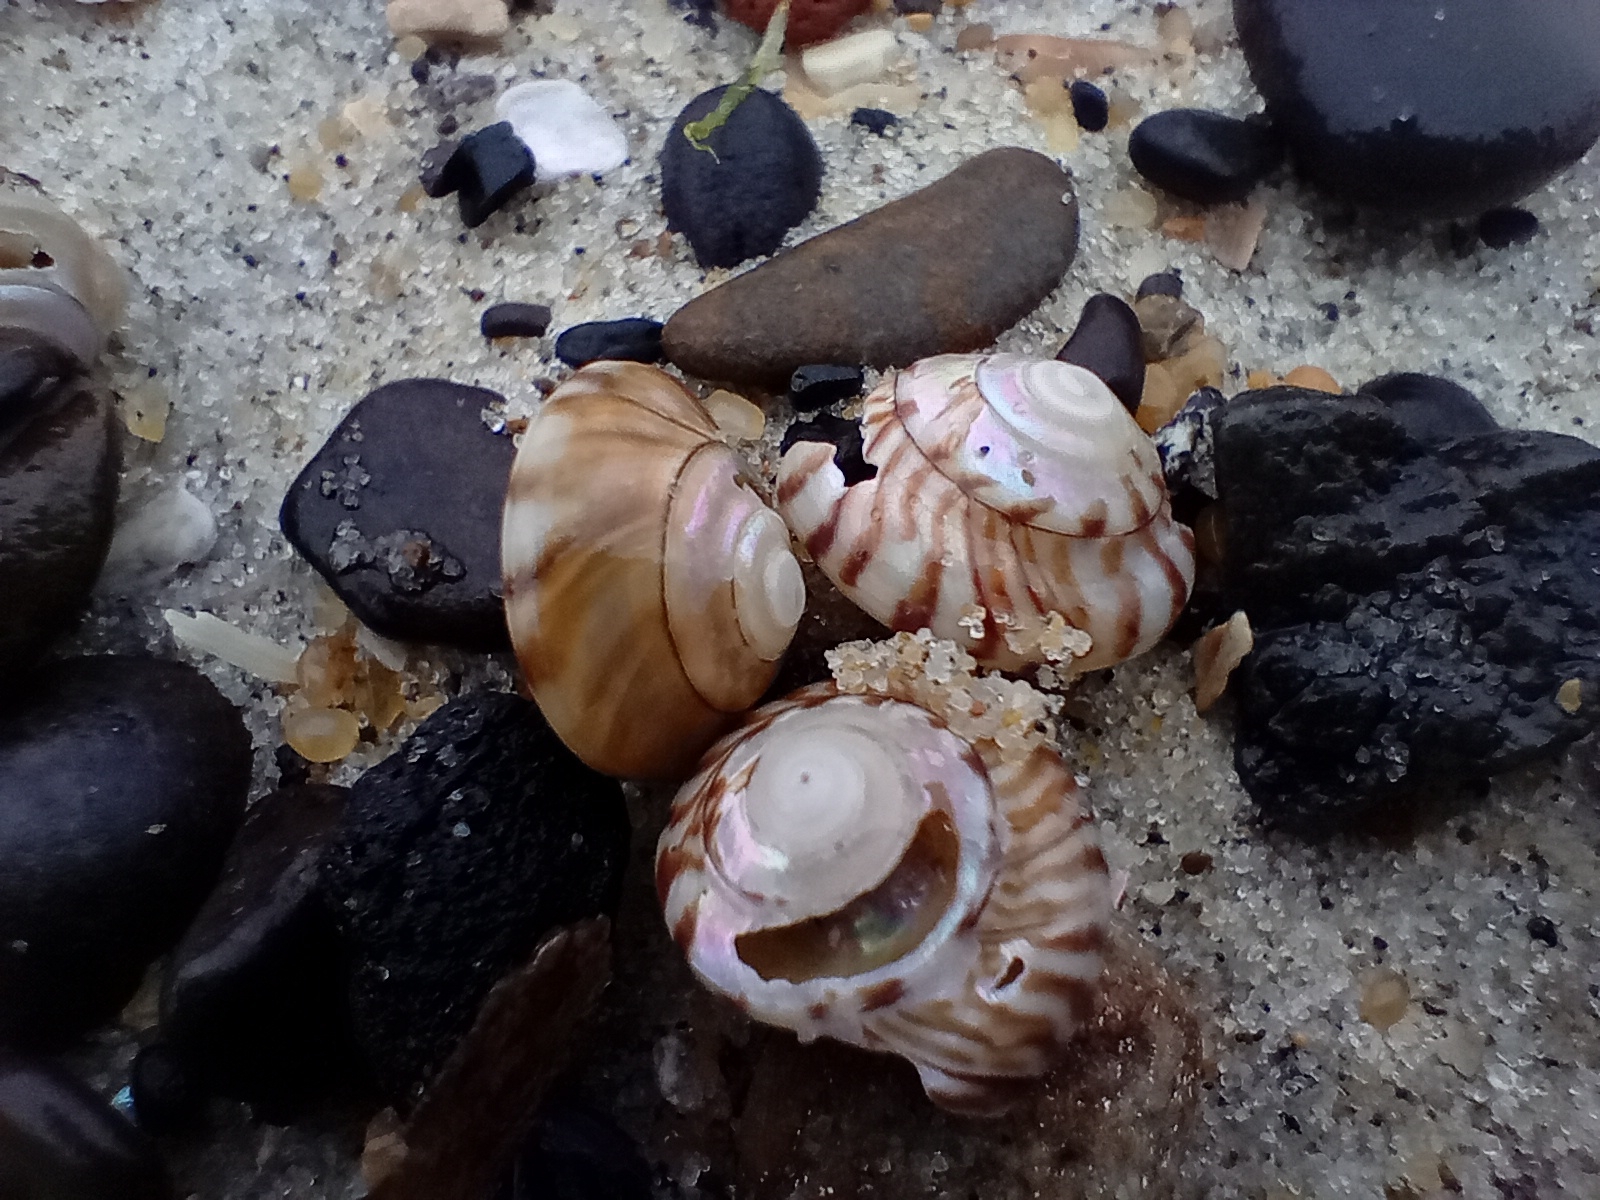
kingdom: Animalia
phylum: Mollusca
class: Gastropoda
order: Trochida
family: Trochidae
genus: Zethalia
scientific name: Zethalia zelandica
